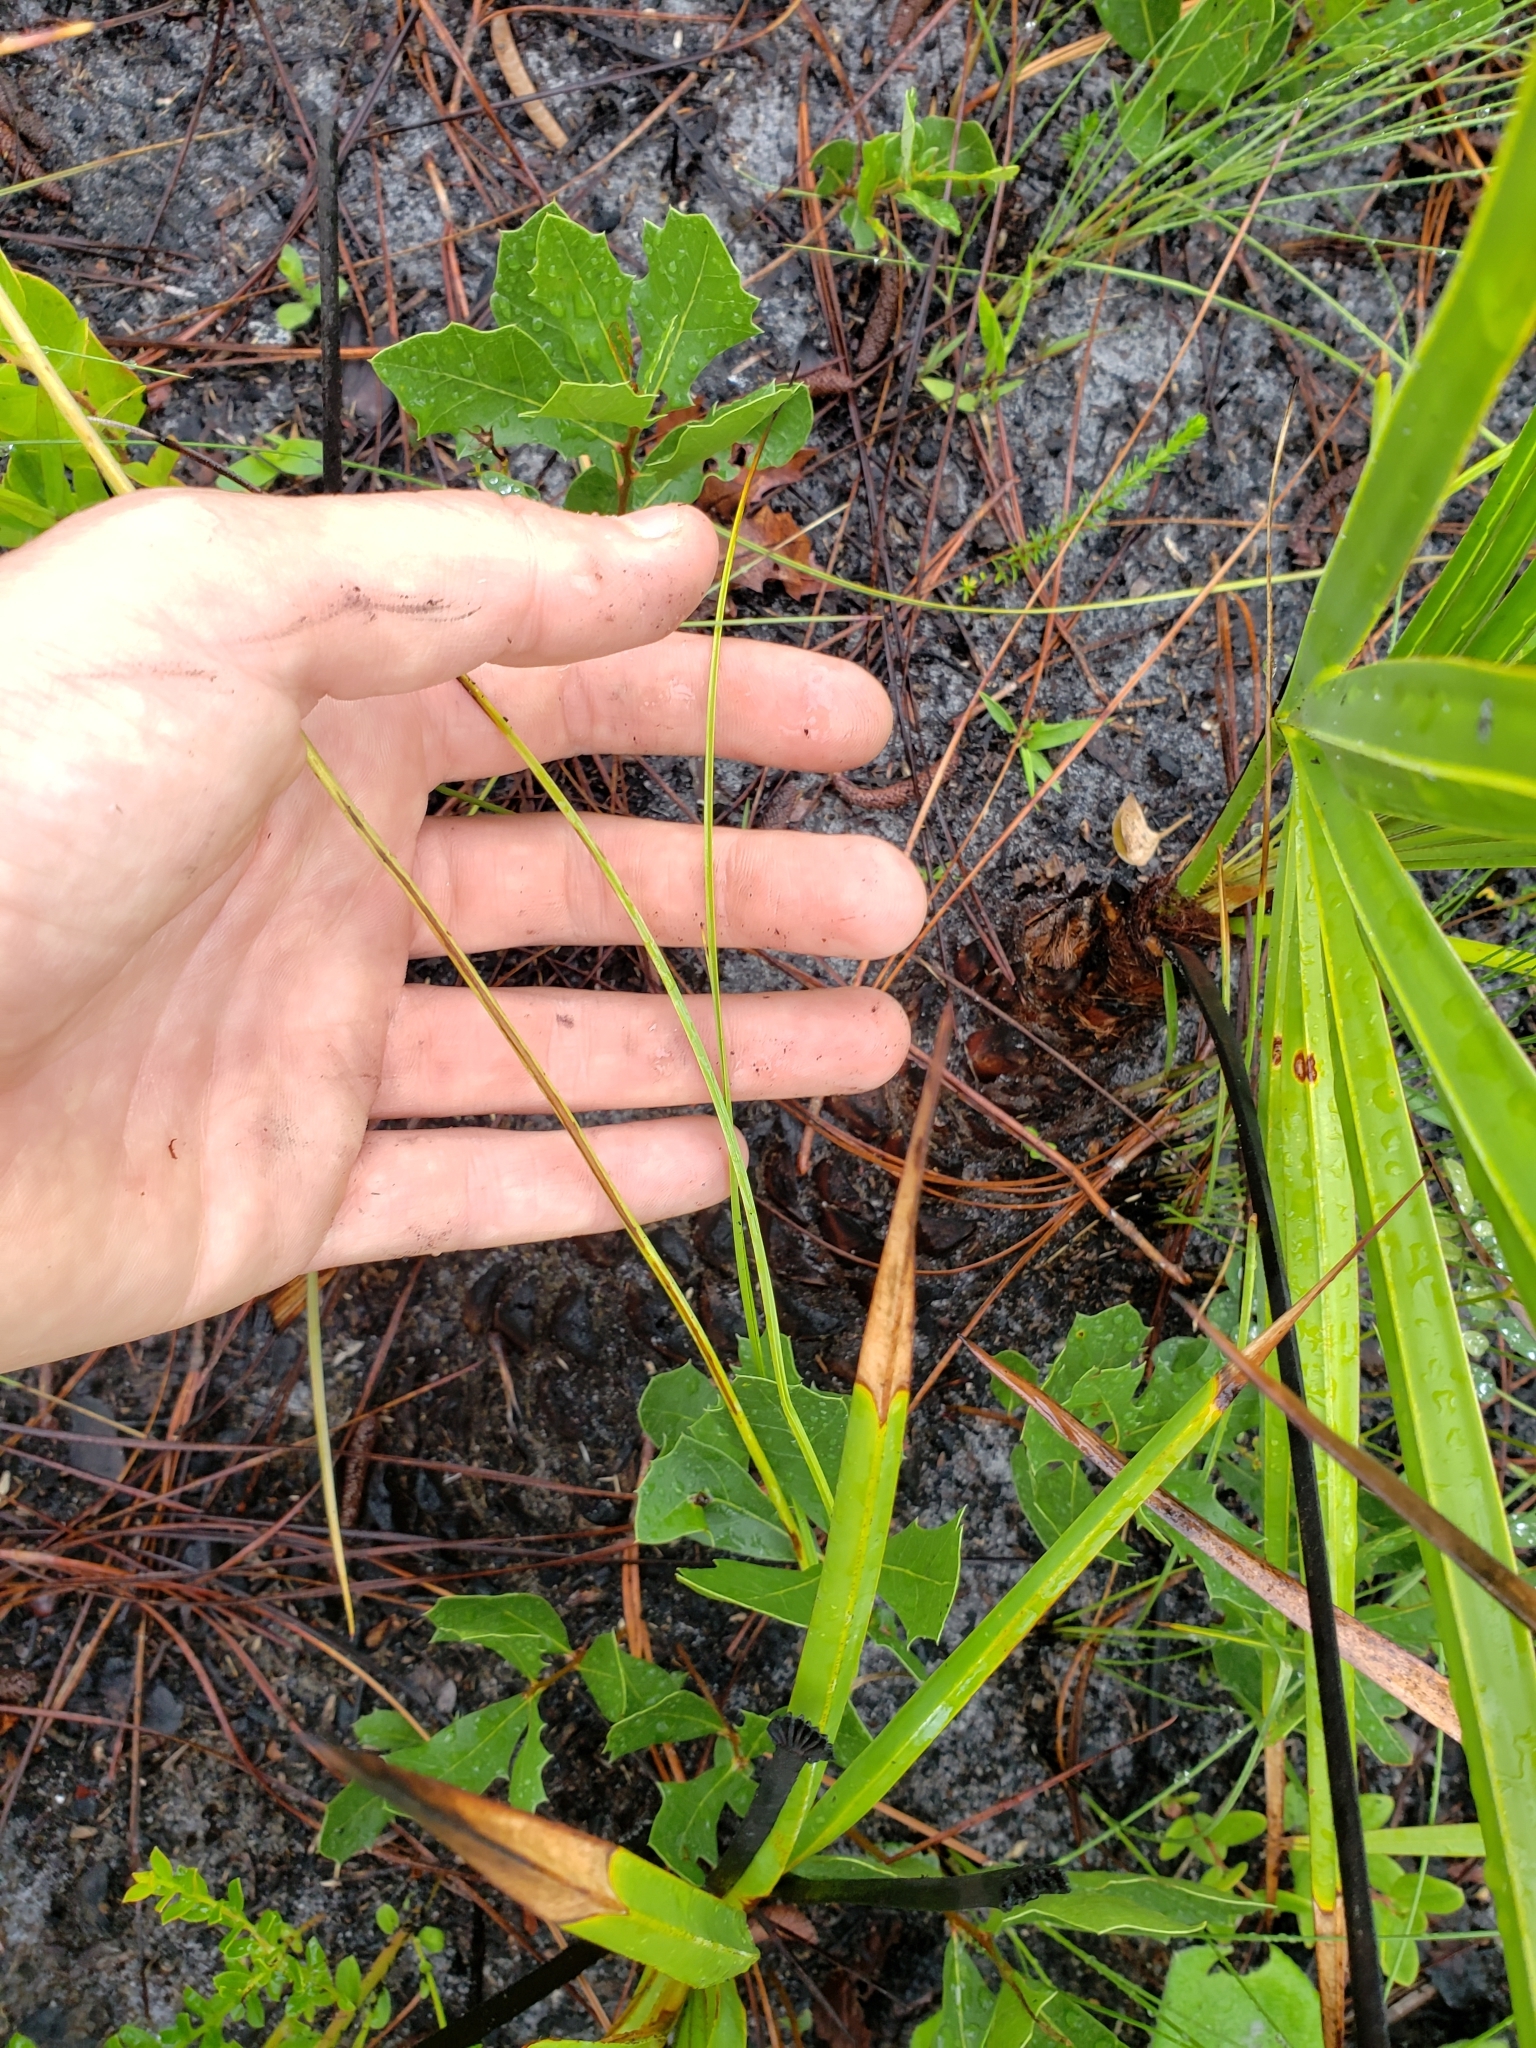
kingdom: Plantae
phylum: Tracheophyta
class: Liliopsida
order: Liliales
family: Melanthiaceae
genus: Schoenocaulon
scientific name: Schoenocaulon dubium
